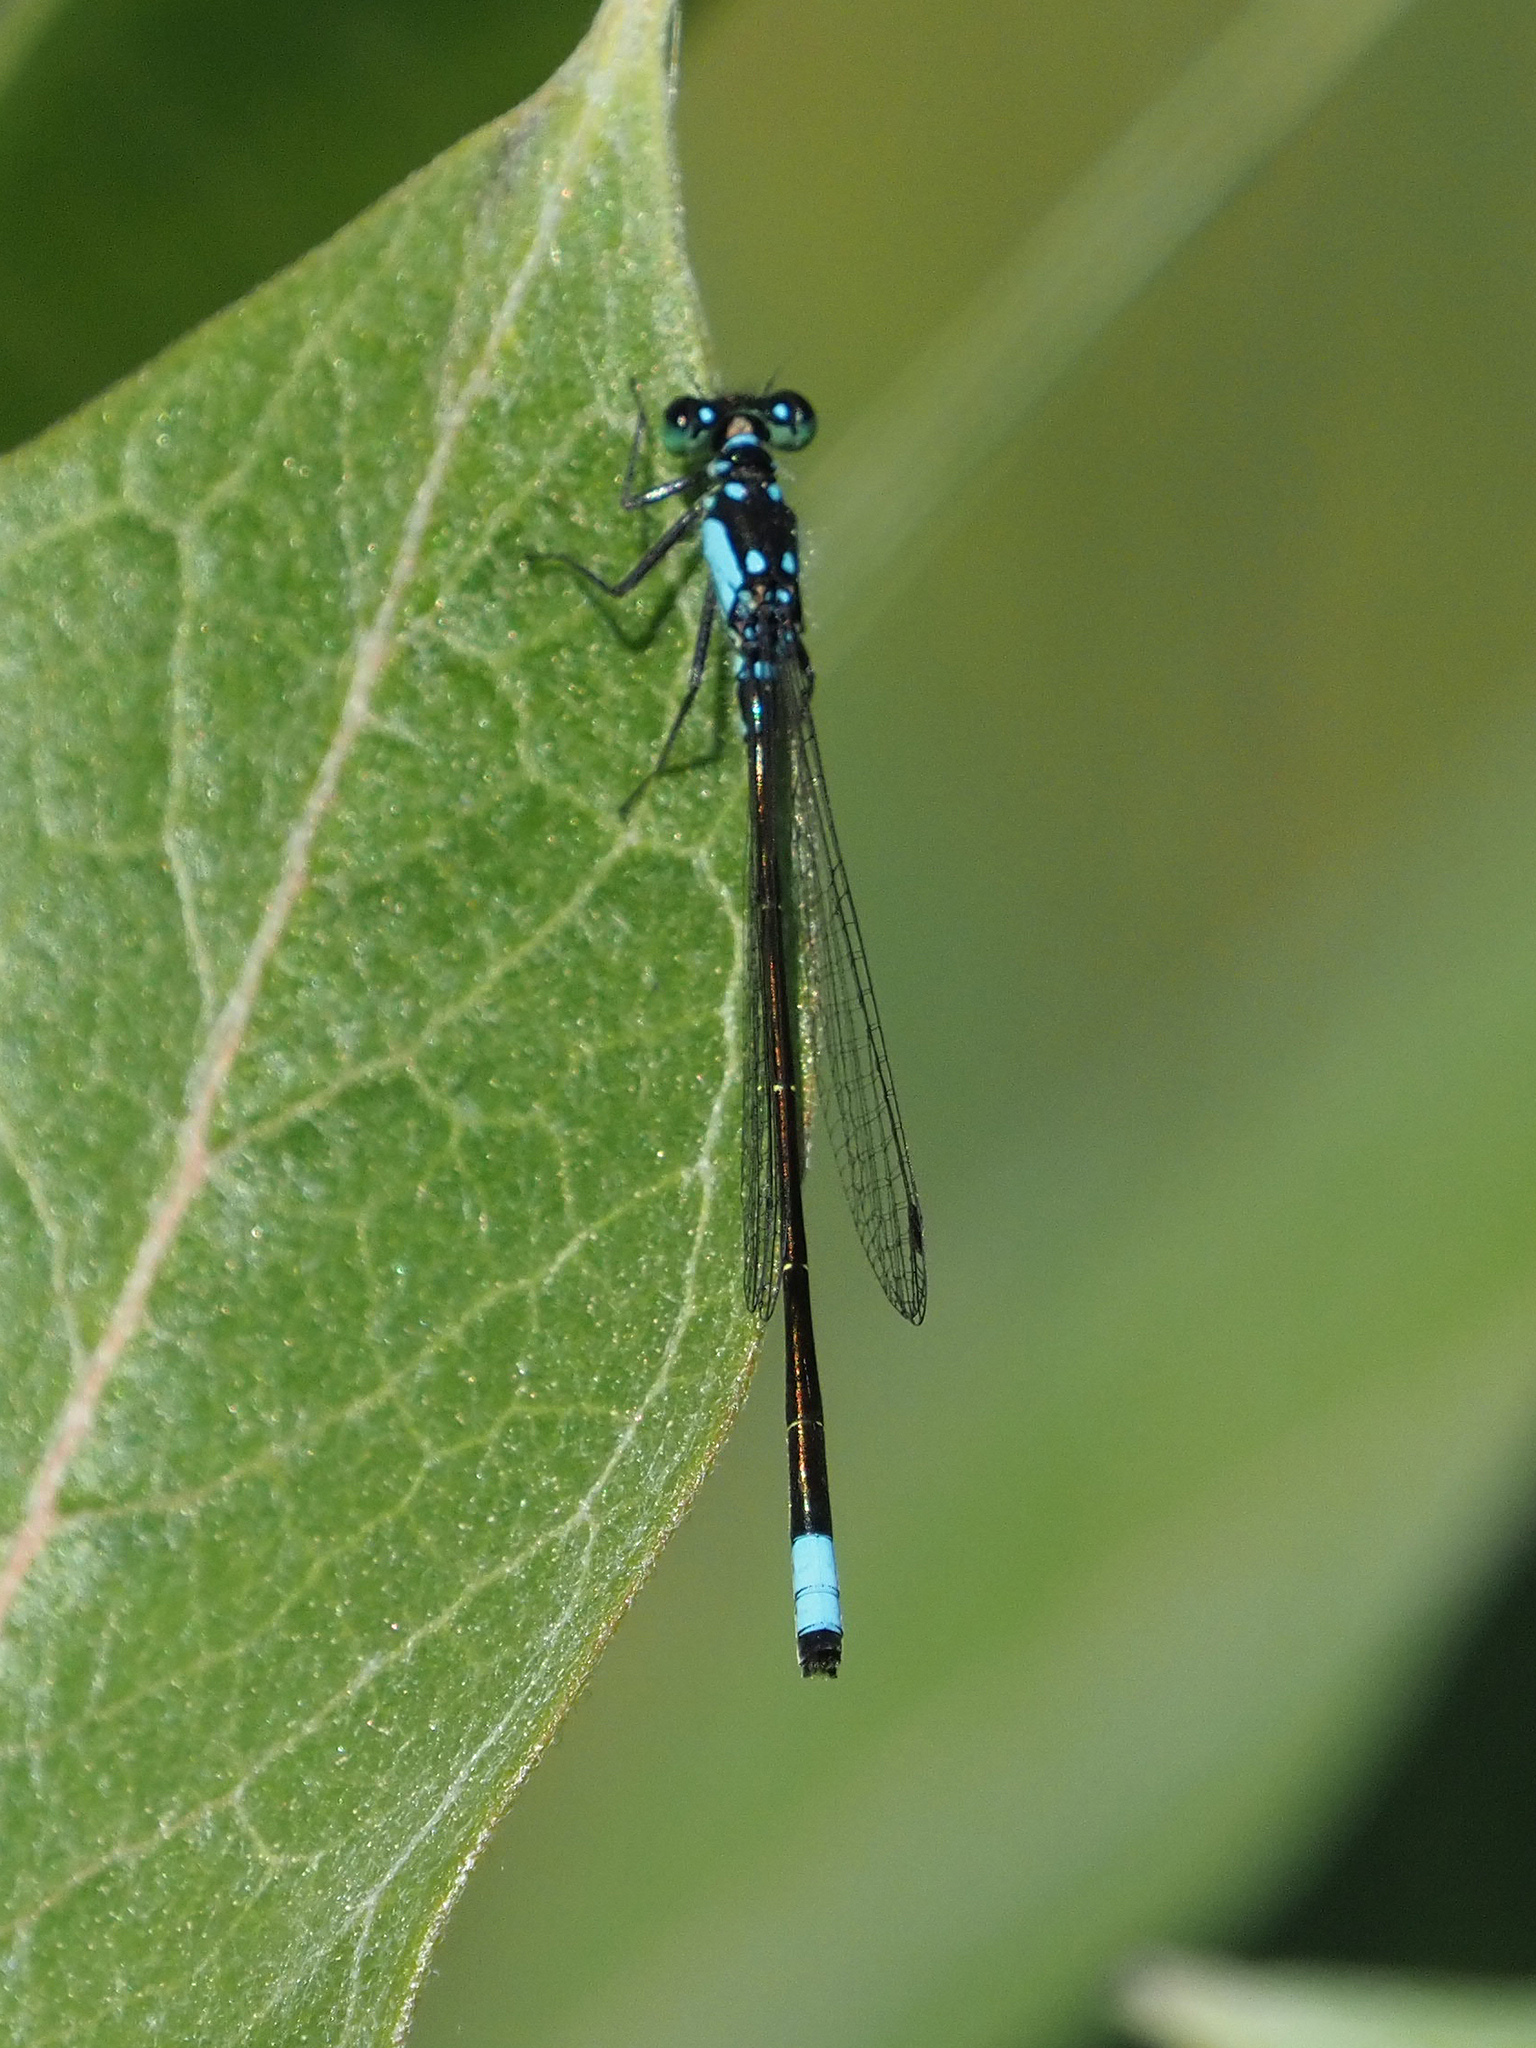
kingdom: Animalia
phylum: Arthropoda
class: Insecta
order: Odonata
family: Coenagrionidae
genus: Ischnura
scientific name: Ischnura cervula
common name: Pacific forktail
